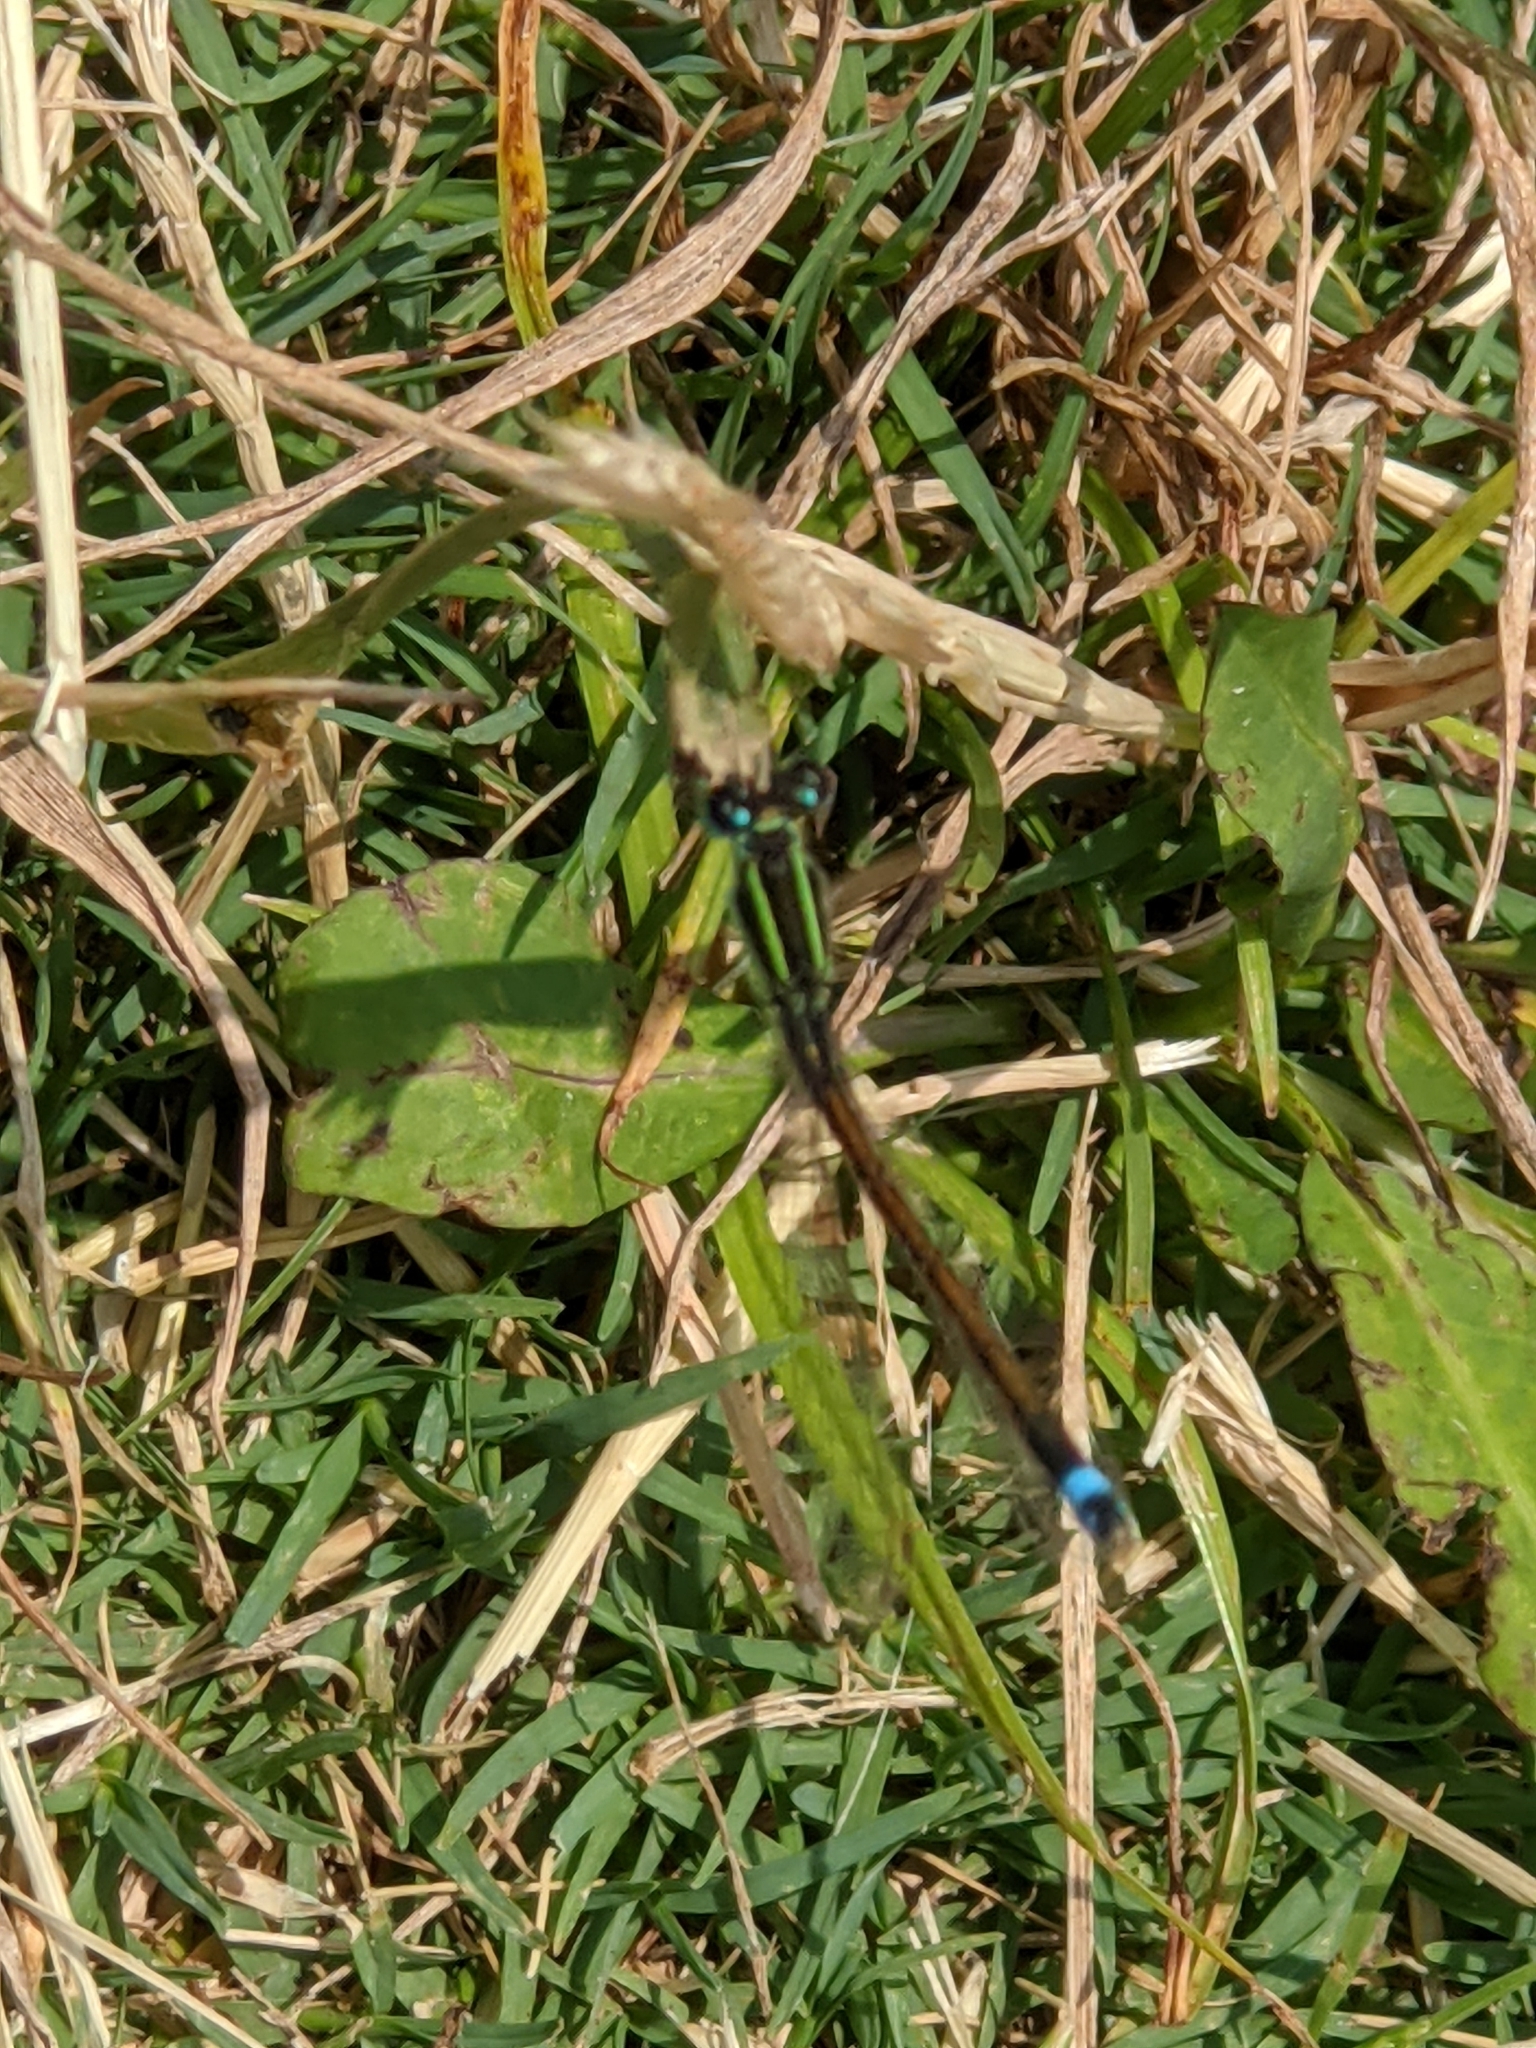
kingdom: Animalia
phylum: Arthropoda
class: Insecta
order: Odonata
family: Coenagrionidae
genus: Ischnura
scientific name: Ischnura ramburii
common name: Rambur's forktail
